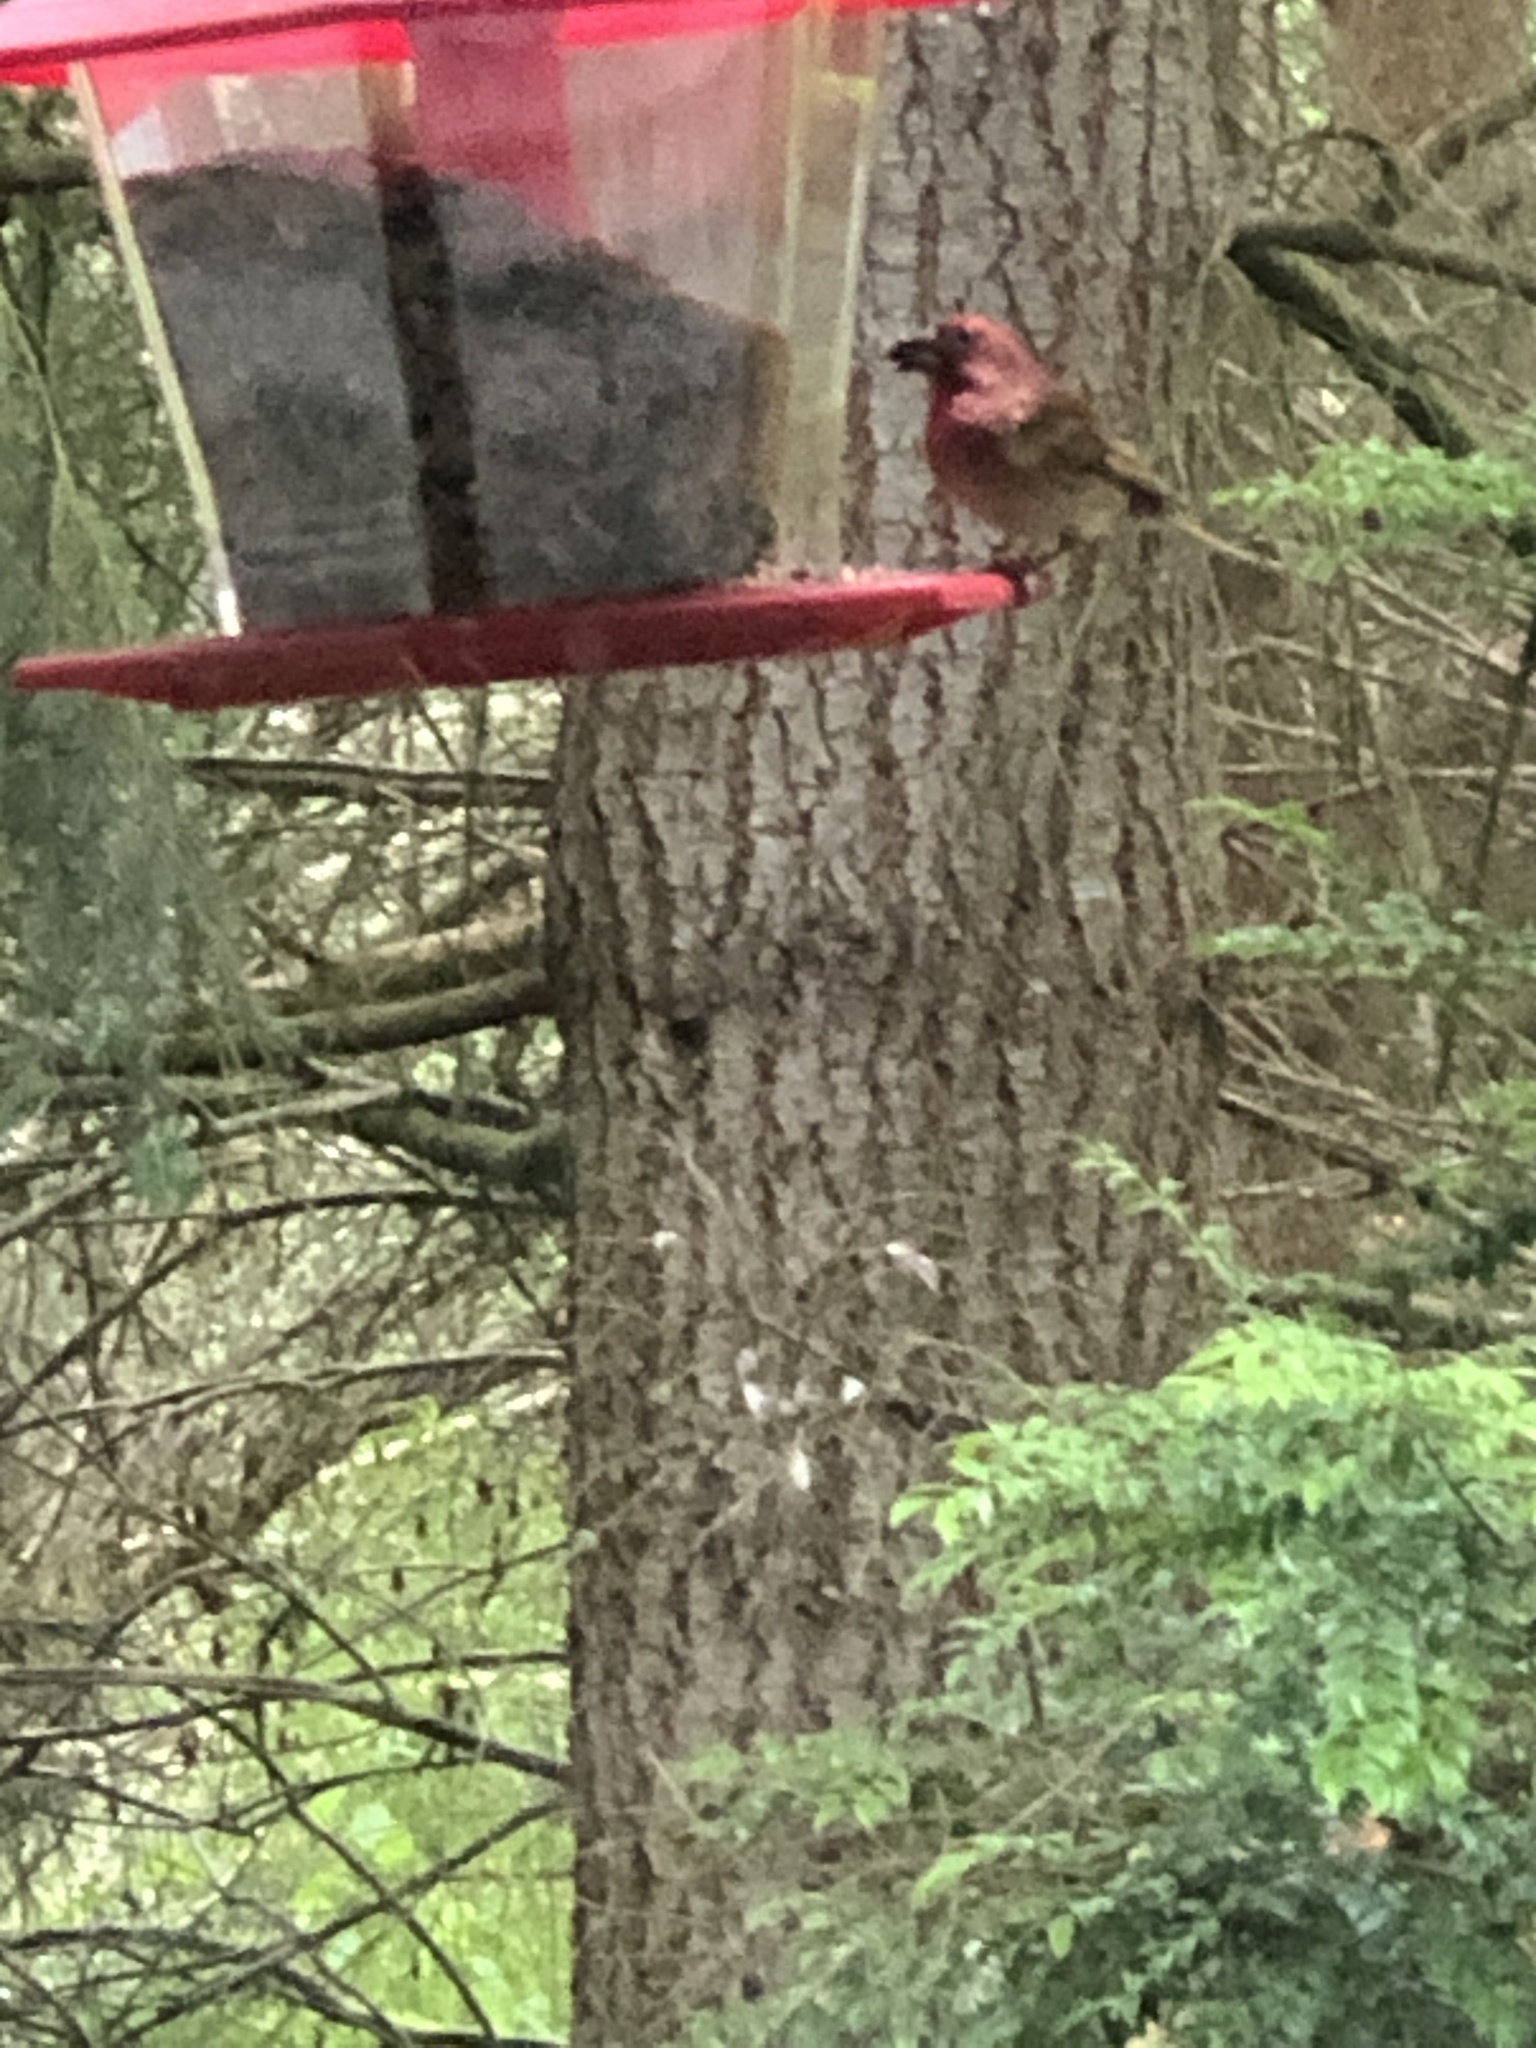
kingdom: Animalia
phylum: Chordata
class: Aves
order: Passeriformes
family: Fringillidae
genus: Haemorhous
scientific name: Haemorhous purpureus
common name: Purple finch
